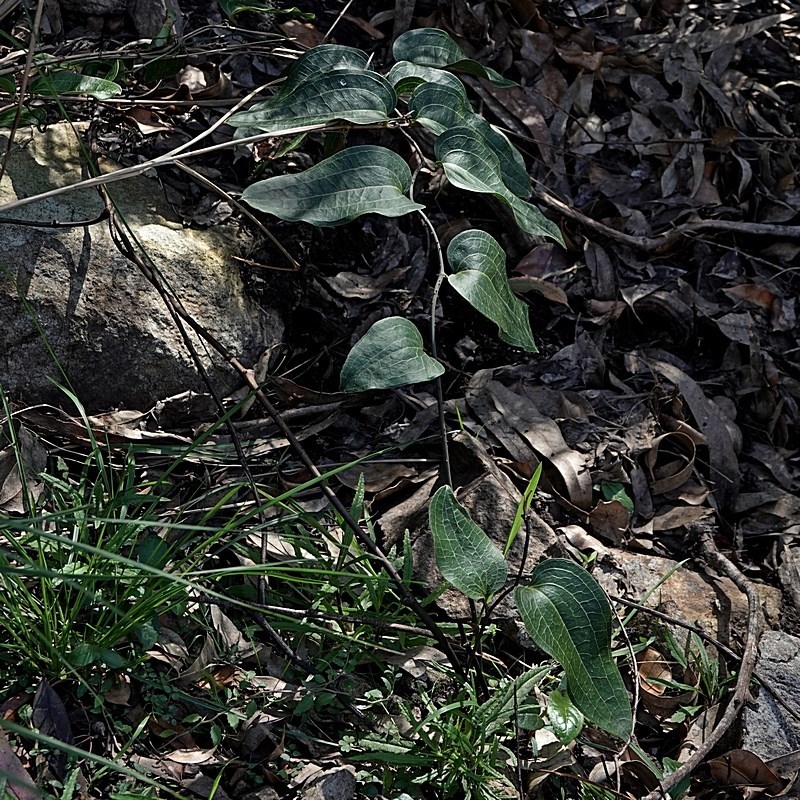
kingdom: Plantae
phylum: Tracheophyta
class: Liliopsida
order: Liliales
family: Smilacaceae
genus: Smilax
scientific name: Smilax australis
